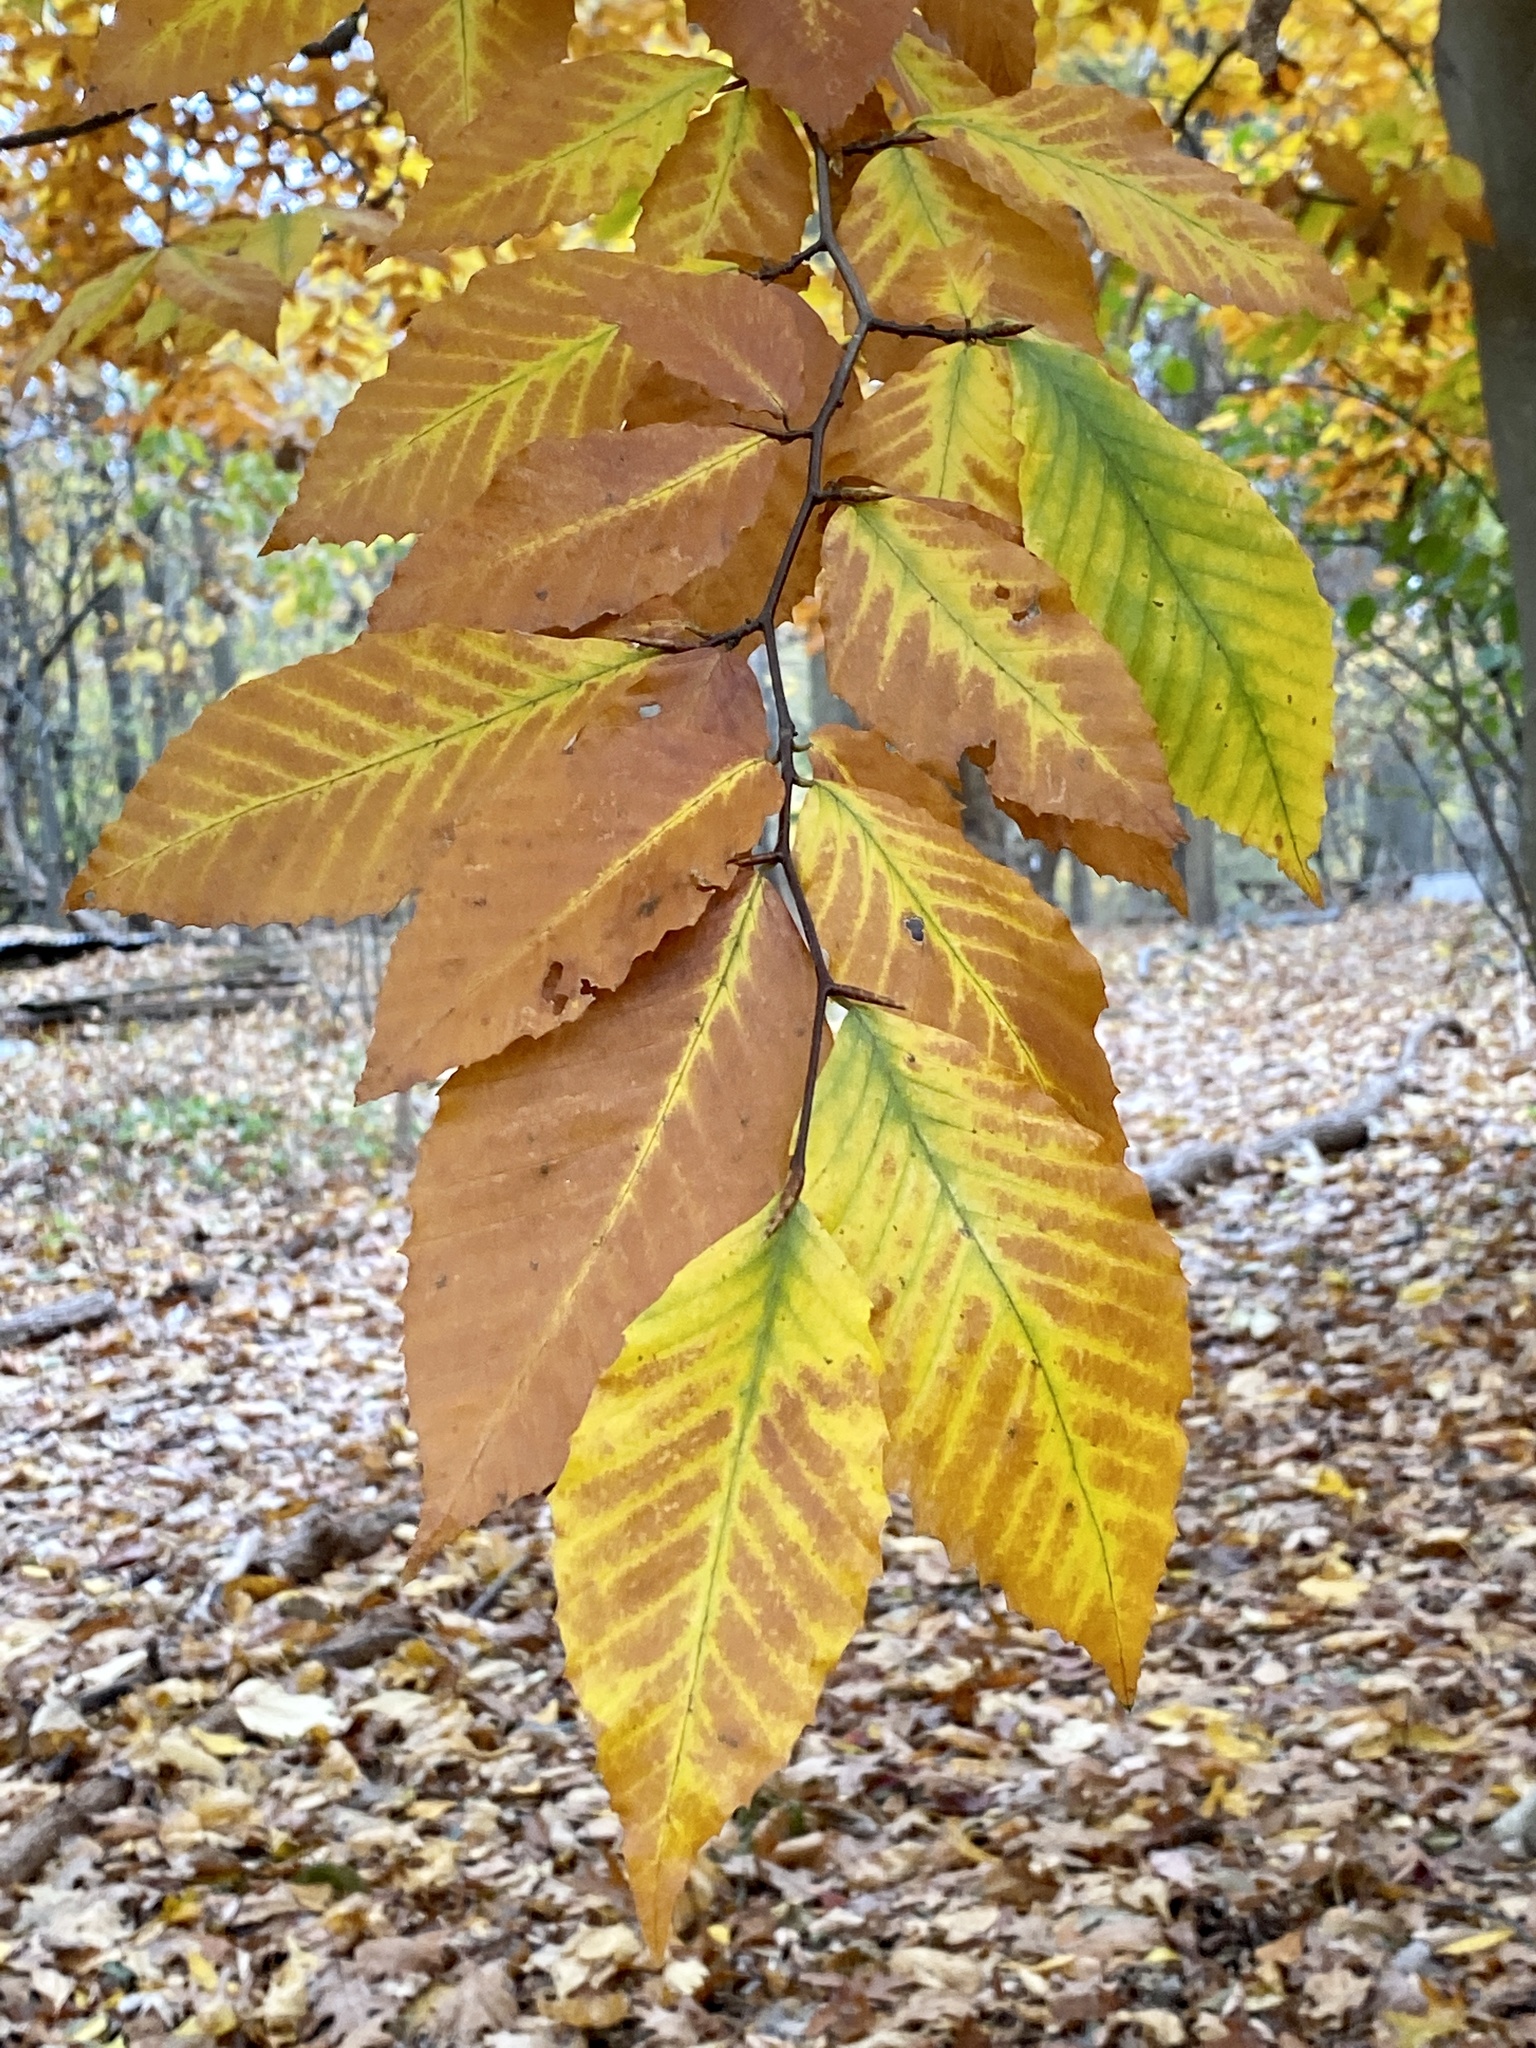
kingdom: Plantae
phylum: Tracheophyta
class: Magnoliopsida
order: Fagales
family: Fagaceae
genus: Fagus
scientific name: Fagus grandifolia
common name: American beech
